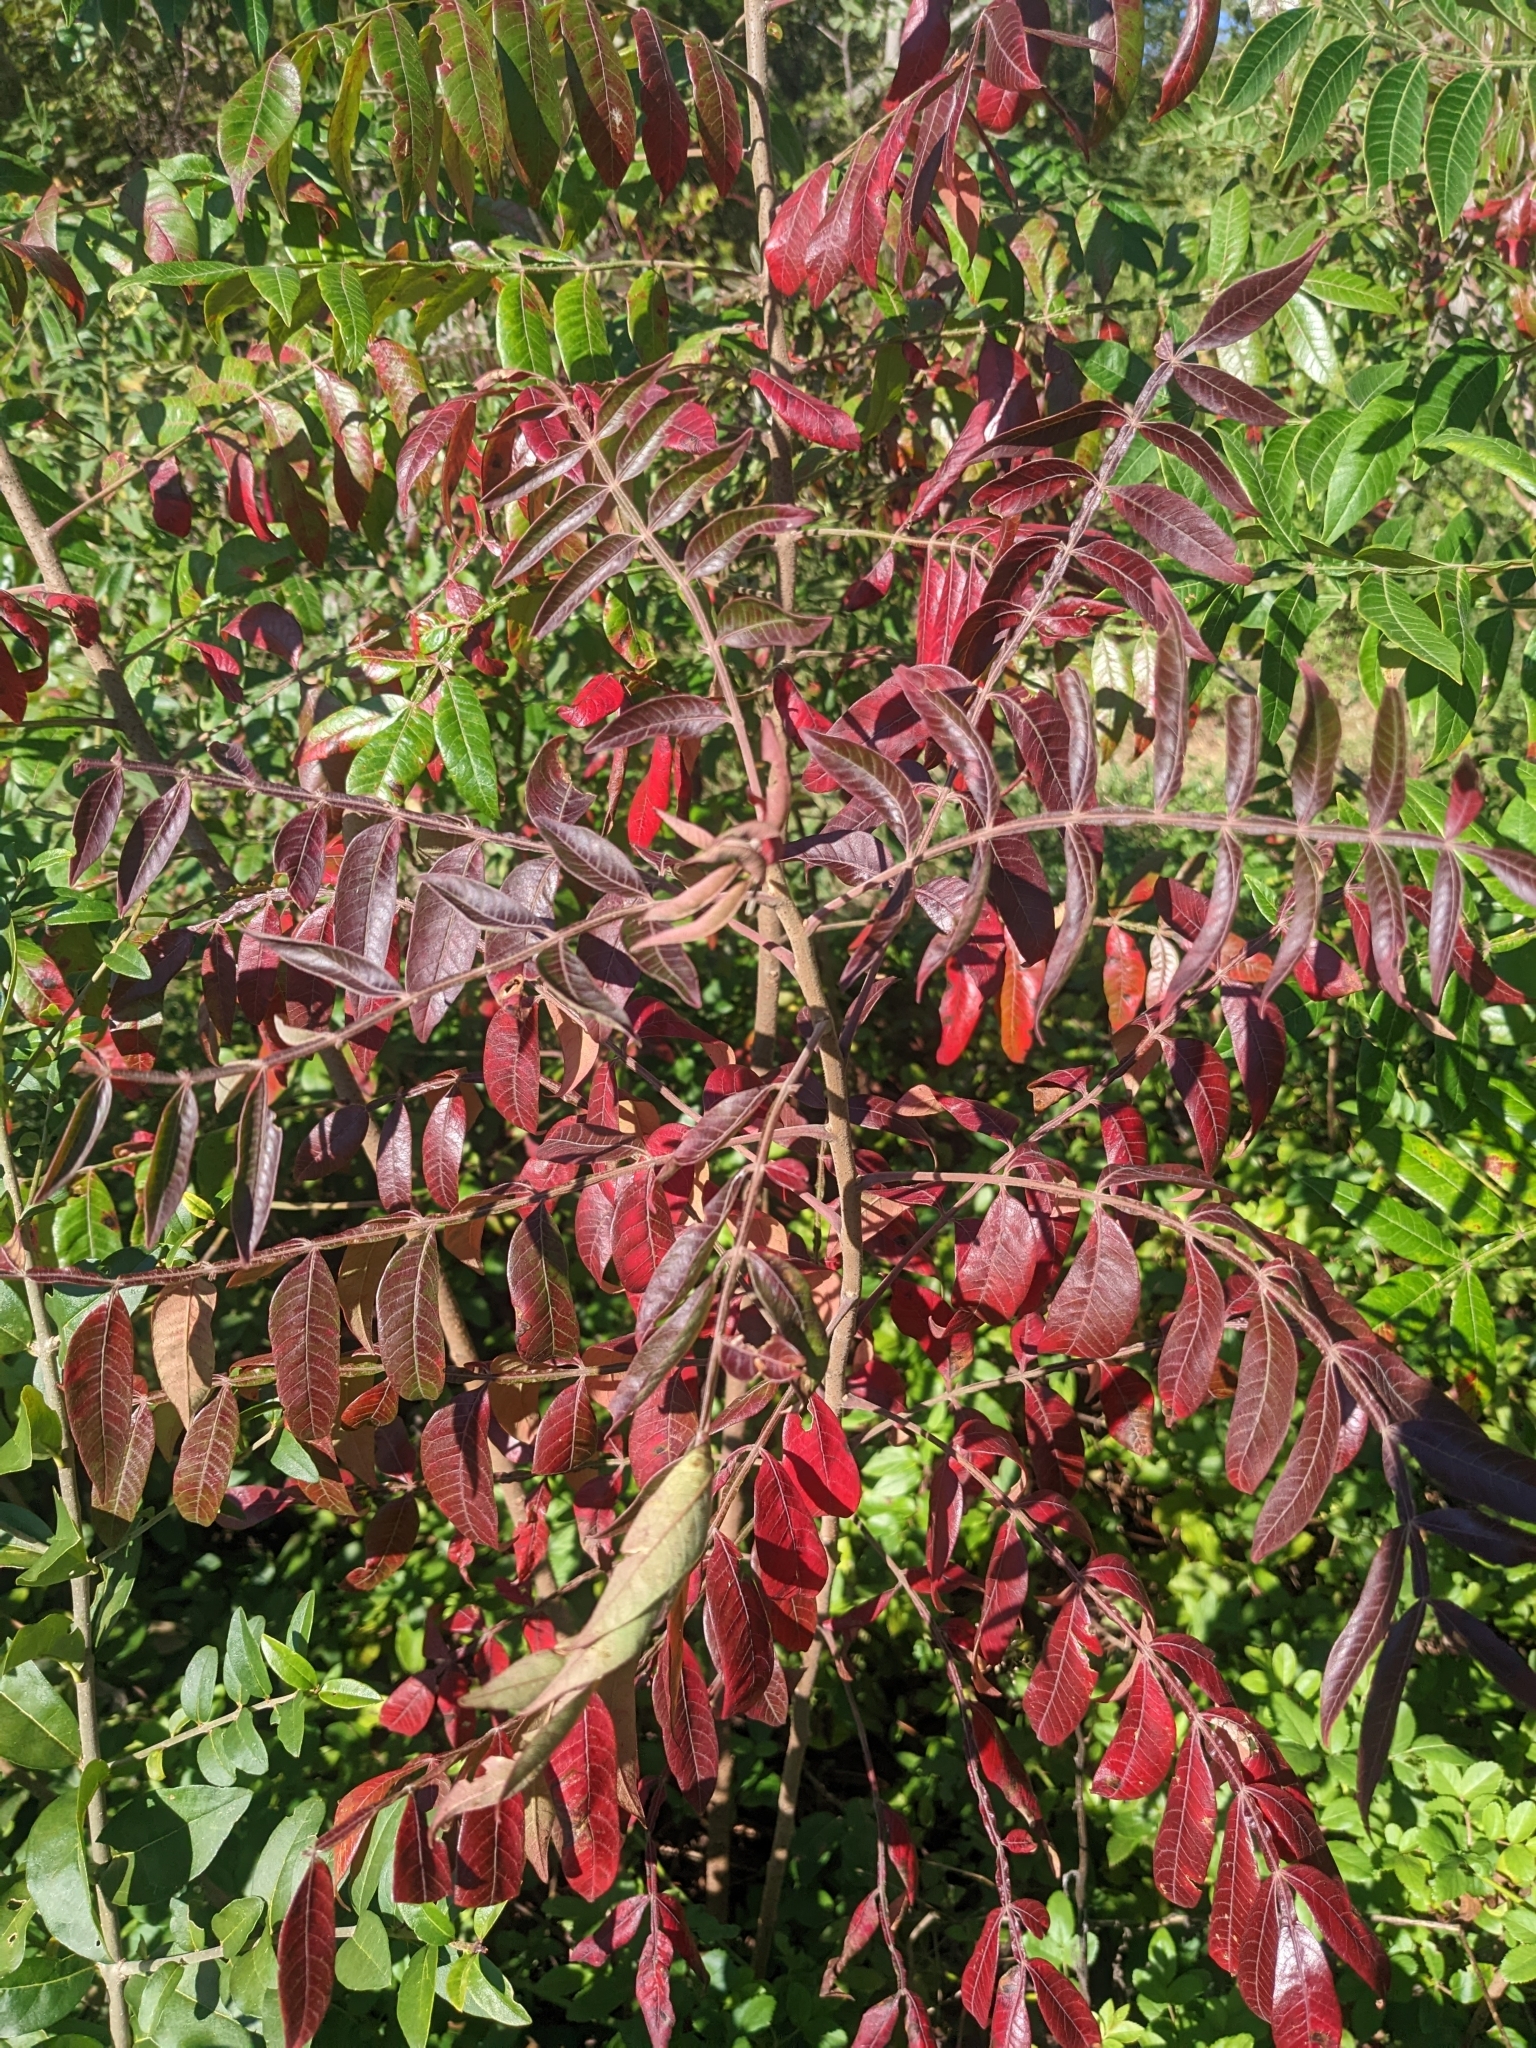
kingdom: Plantae
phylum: Tracheophyta
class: Magnoliopsida
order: Sapindales
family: Anacardiaceae
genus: Rhus
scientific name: Rhus copallina
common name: Shining sumac
